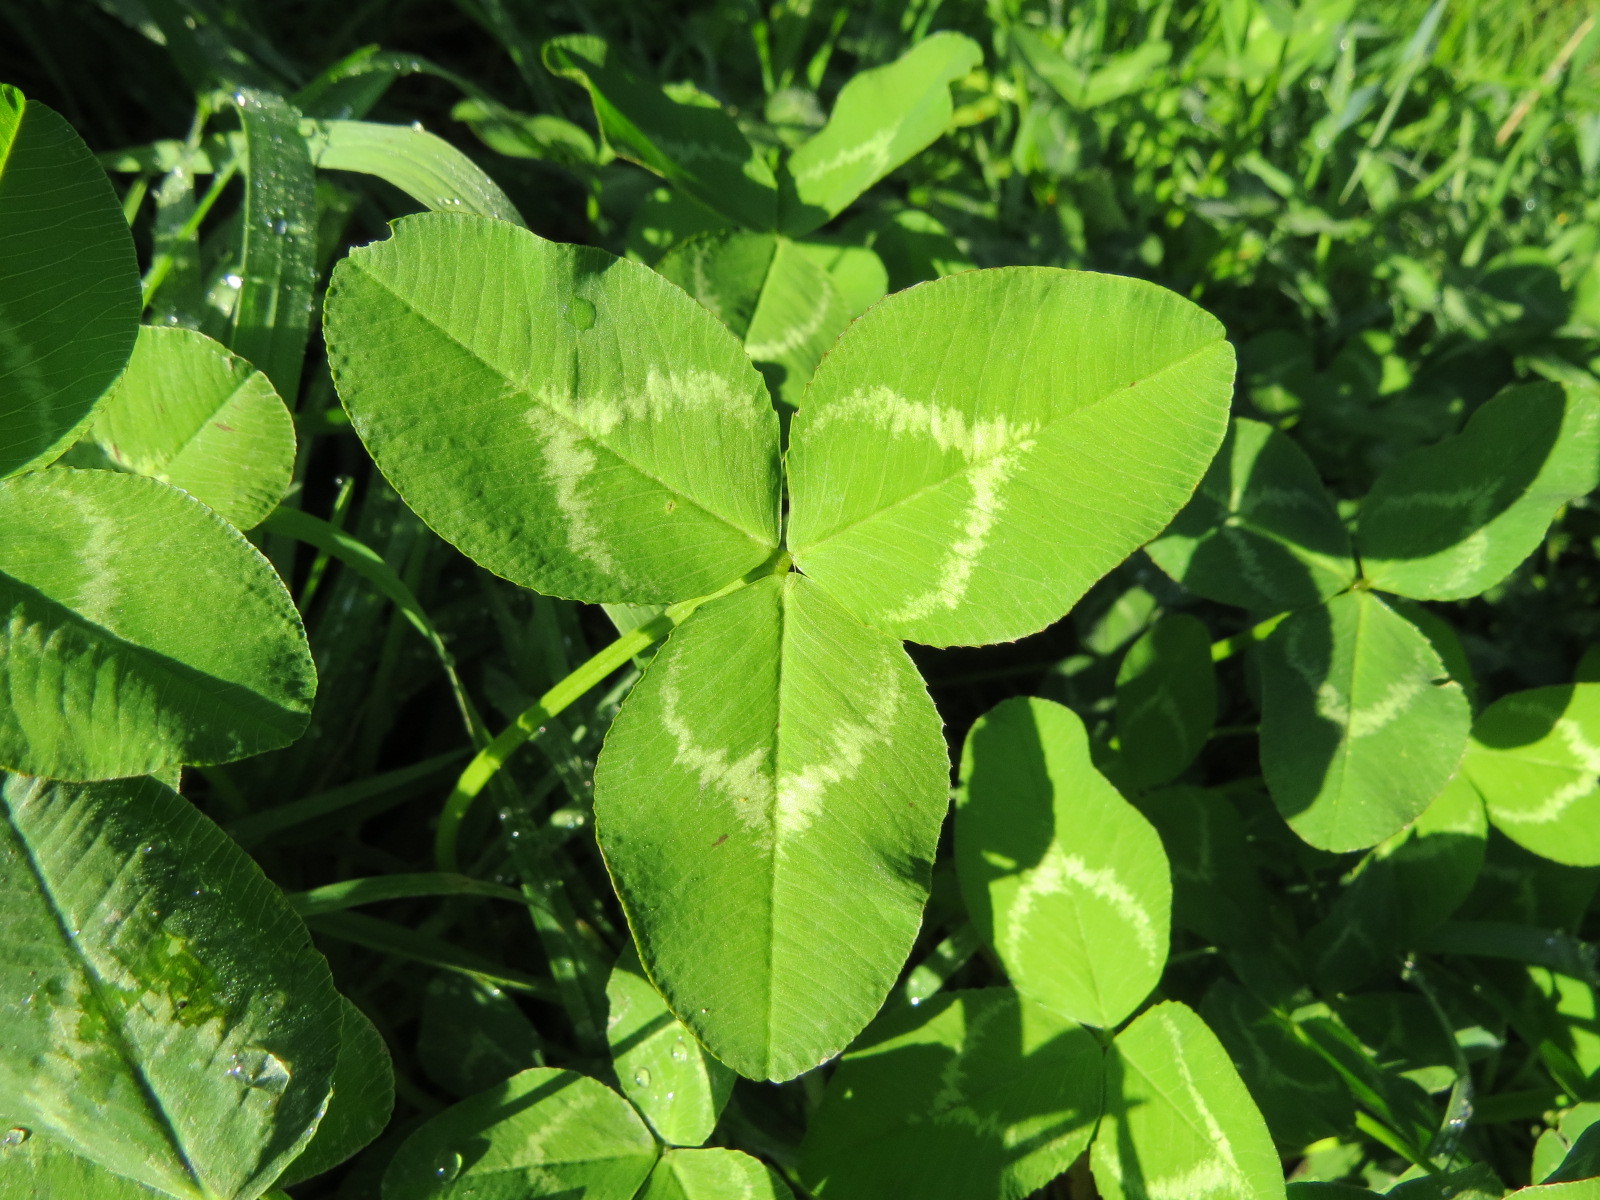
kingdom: Plantae
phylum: Tracheophyta
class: Magnoliopsida
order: Fabales
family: Fabaceae
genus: Trifolium
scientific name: Trifolium repens
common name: White clover
